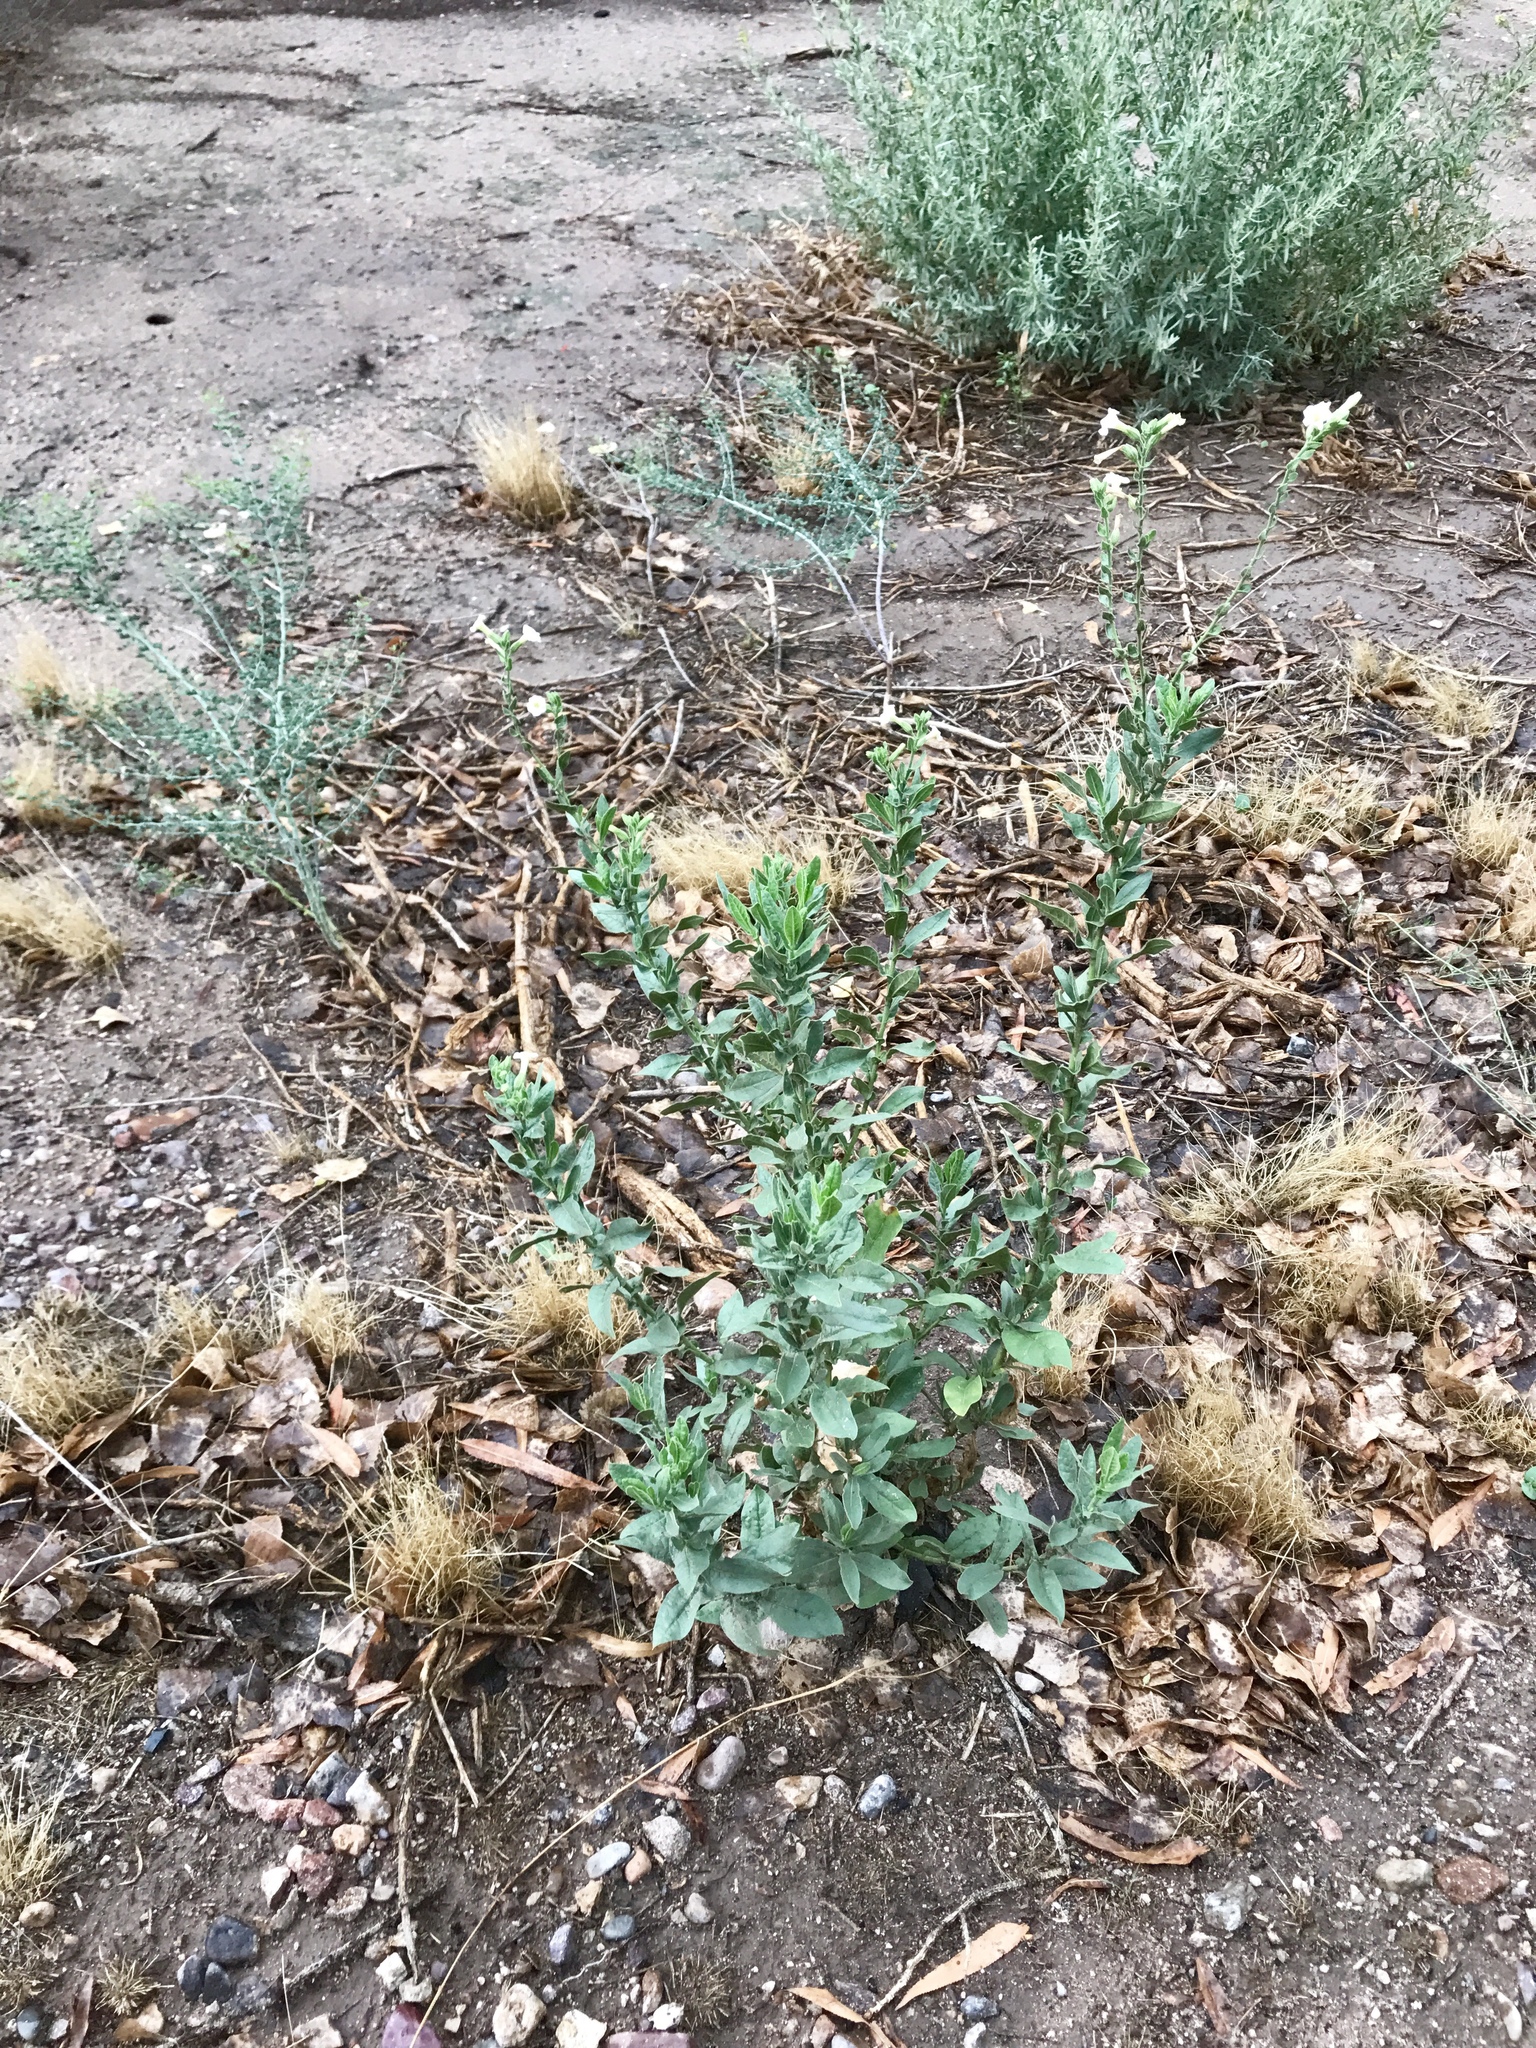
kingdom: Plantae
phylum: Tracheophyta
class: Magnoliopsida
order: Solanales
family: Solanaceae
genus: Nicotiana
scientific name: Nicotiana obtusifolia
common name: Desert tobacco
